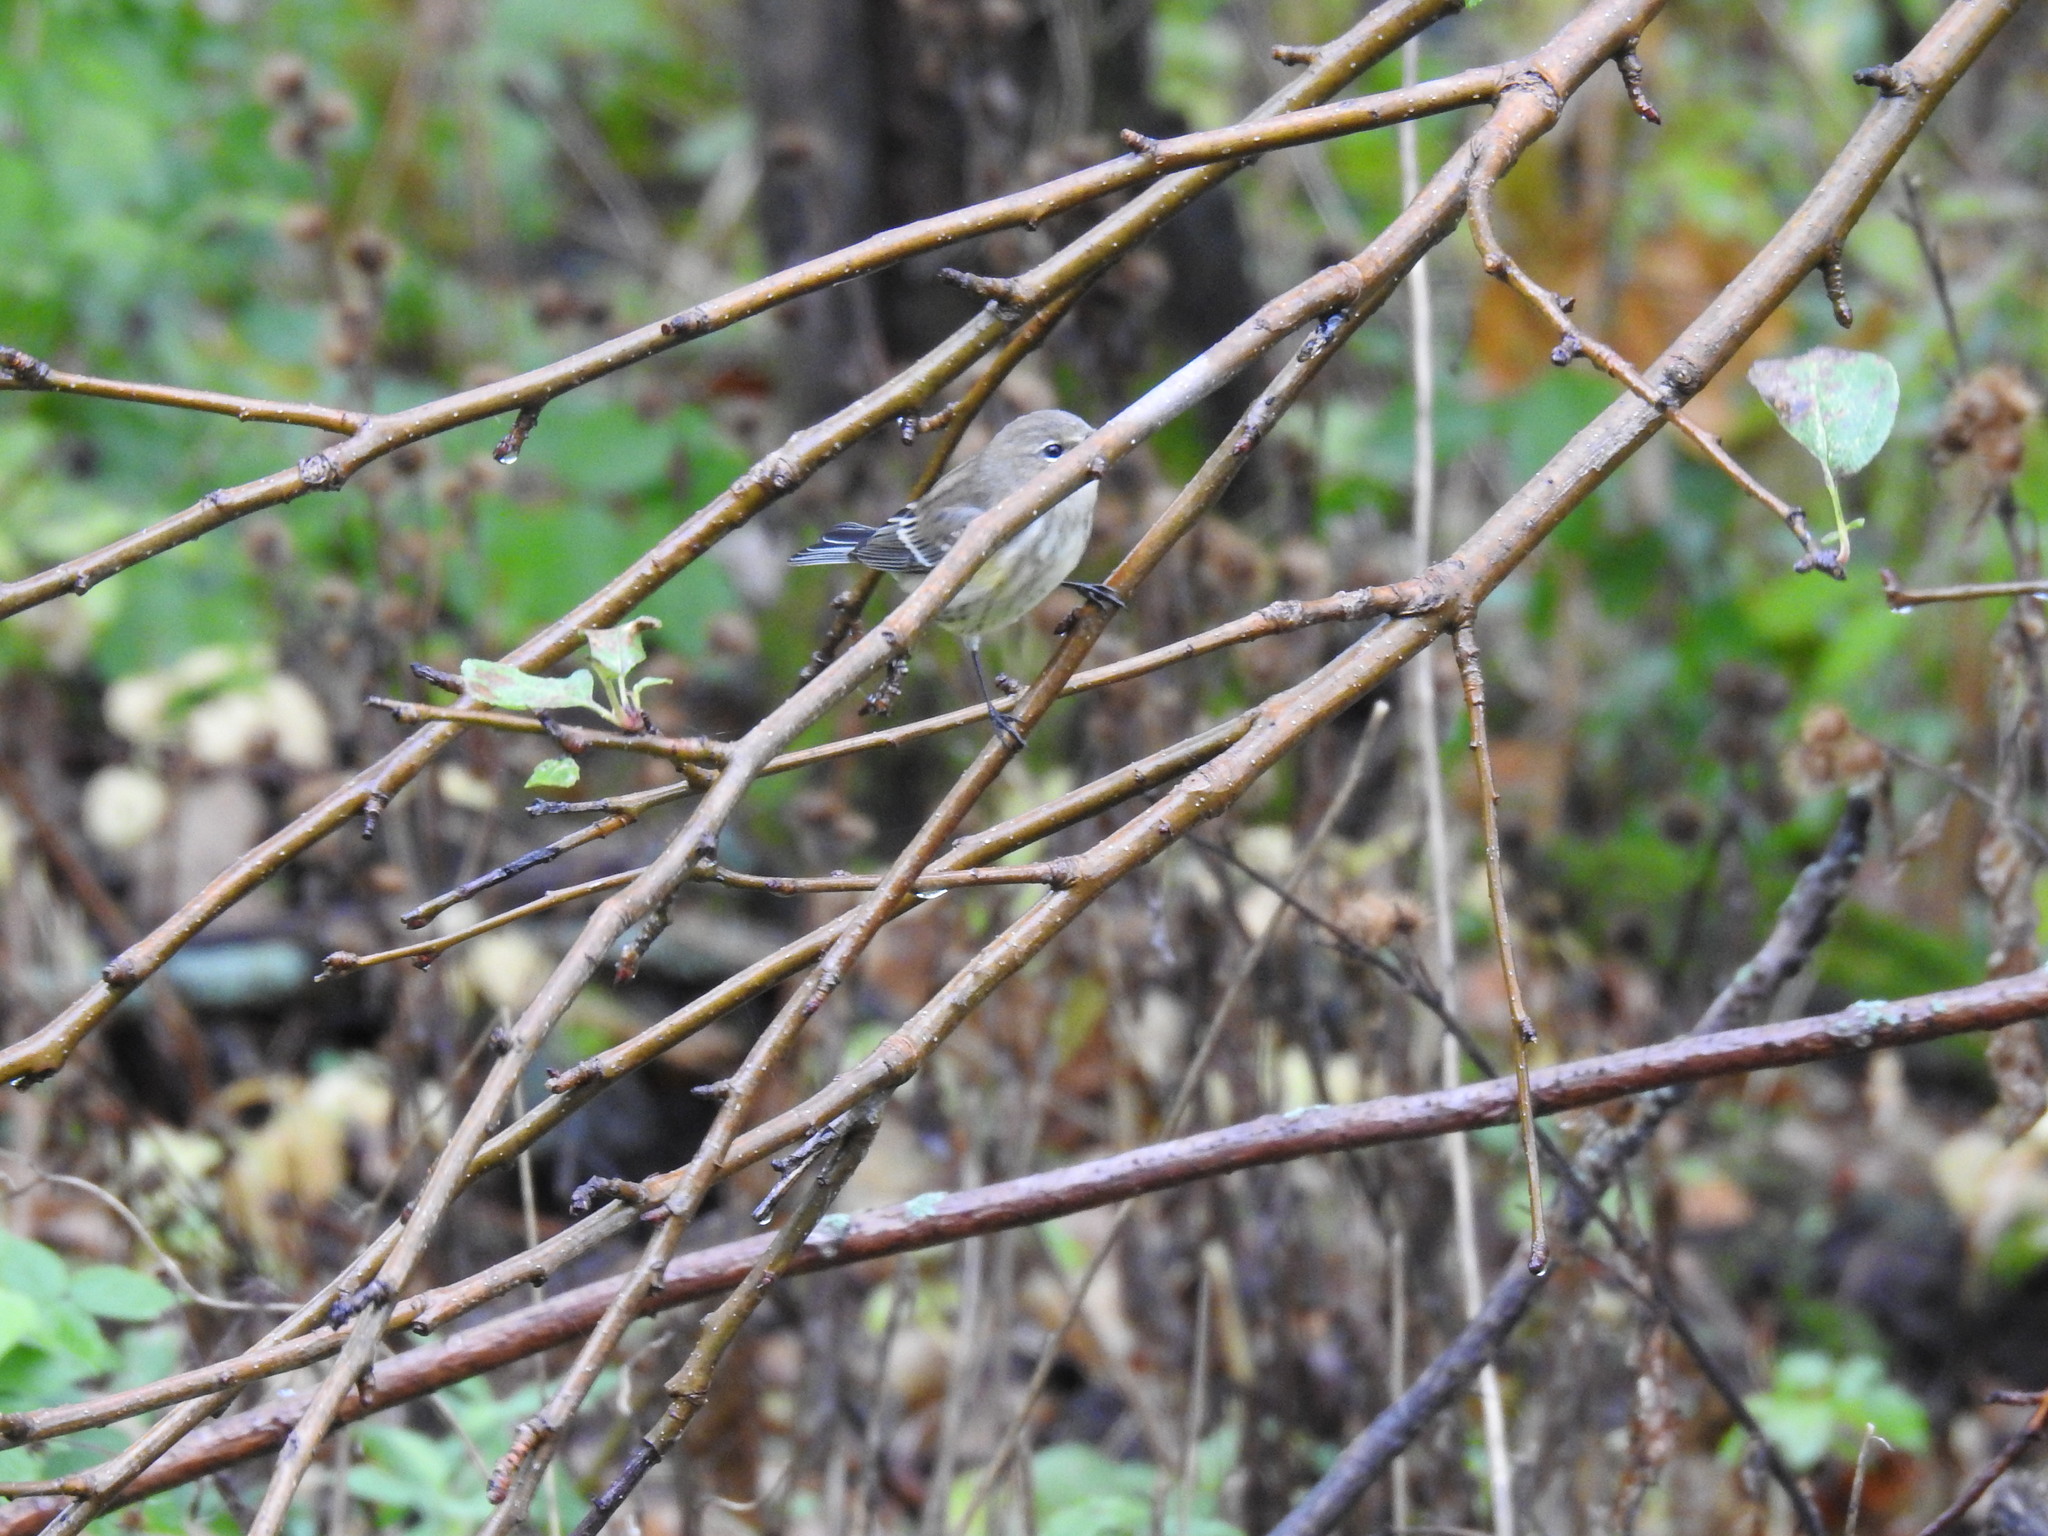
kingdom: Animalia
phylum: Chordata
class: Aves
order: Passeriformes
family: Parulidae
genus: Setophaga
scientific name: Setophaga coronata
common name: Myrtle warbler
